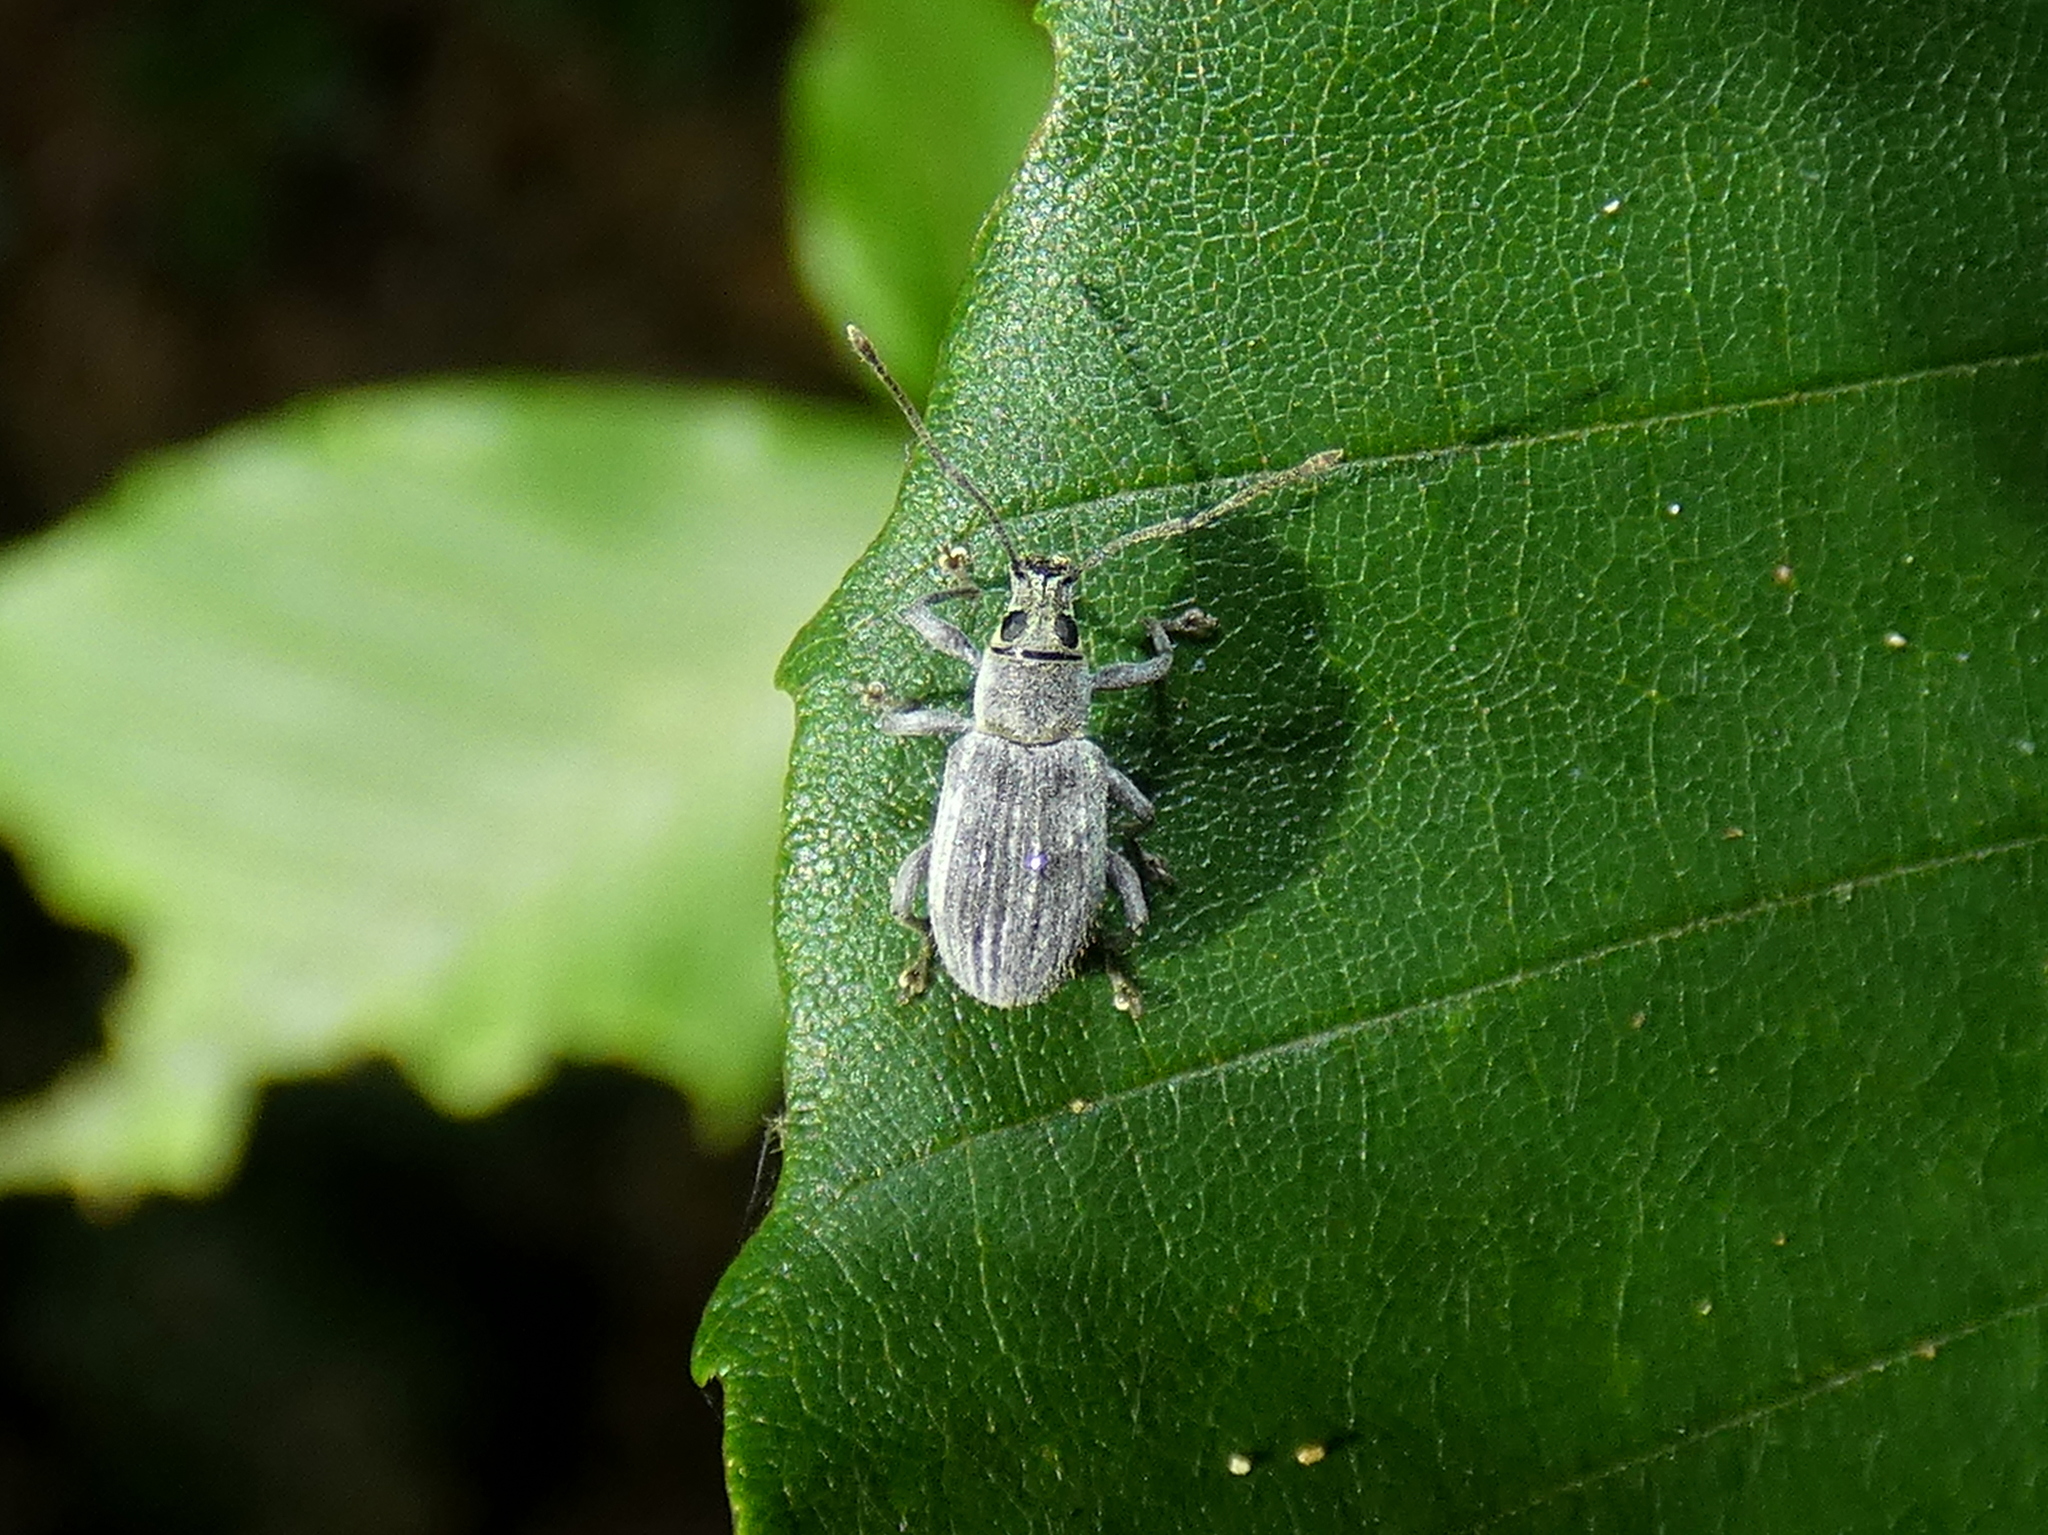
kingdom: Animalia
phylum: Arthropoda
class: Insecta
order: Coleoptera
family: Curculionidae
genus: Cyrtepistomus
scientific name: Cyrtepistomus castaneus
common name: Weevil
